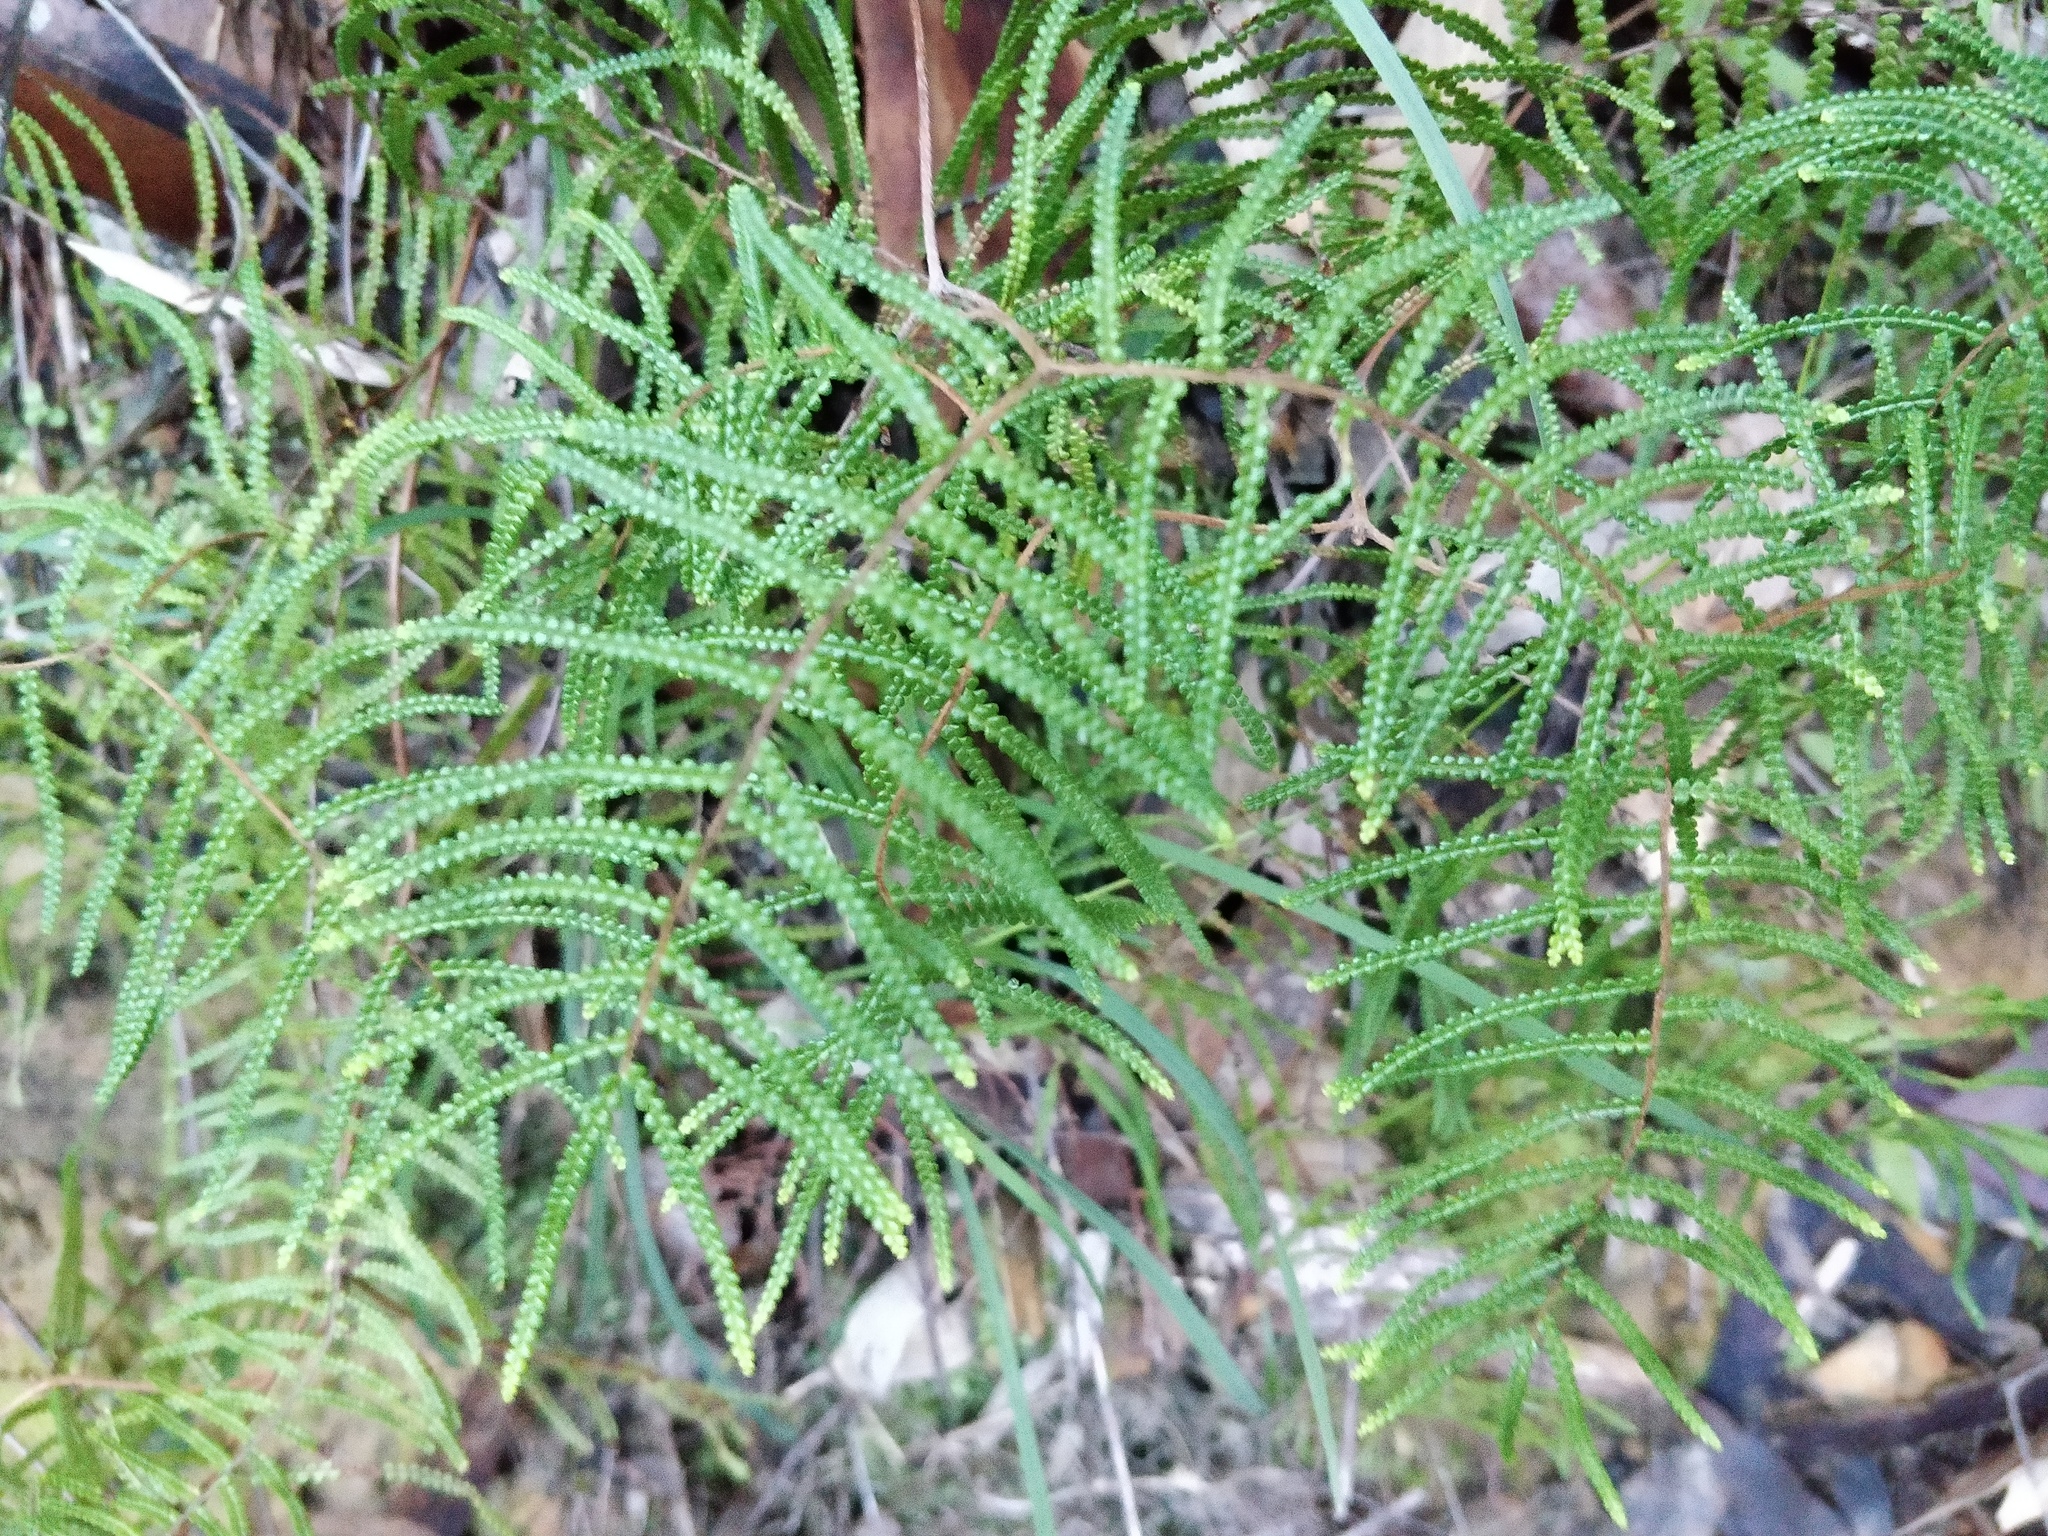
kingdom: Plantae
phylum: Tracheophyta
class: Polypodiopsida
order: Gleicheniales
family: Gleicheniaceae
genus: Gleichenia
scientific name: Gleichenia dicarpa
